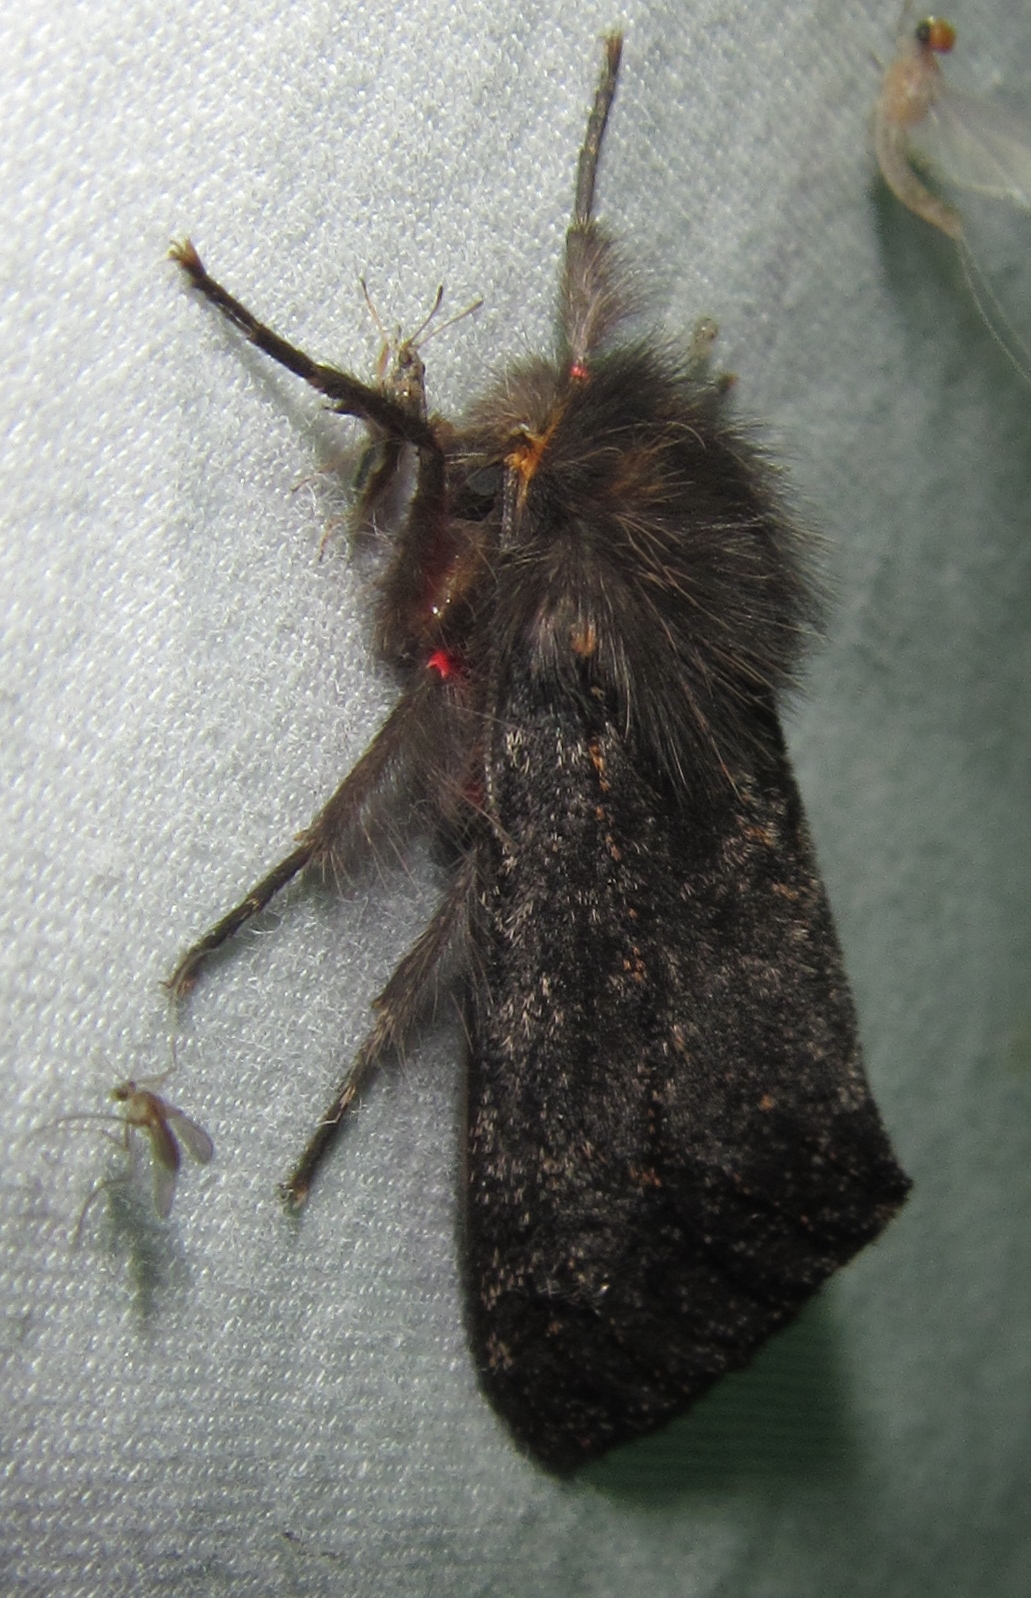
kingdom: Animalia
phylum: Arthropoda
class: Insecta
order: Lepidoptera
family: Erebidae
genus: Polymona
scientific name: Polymona rufifemur
